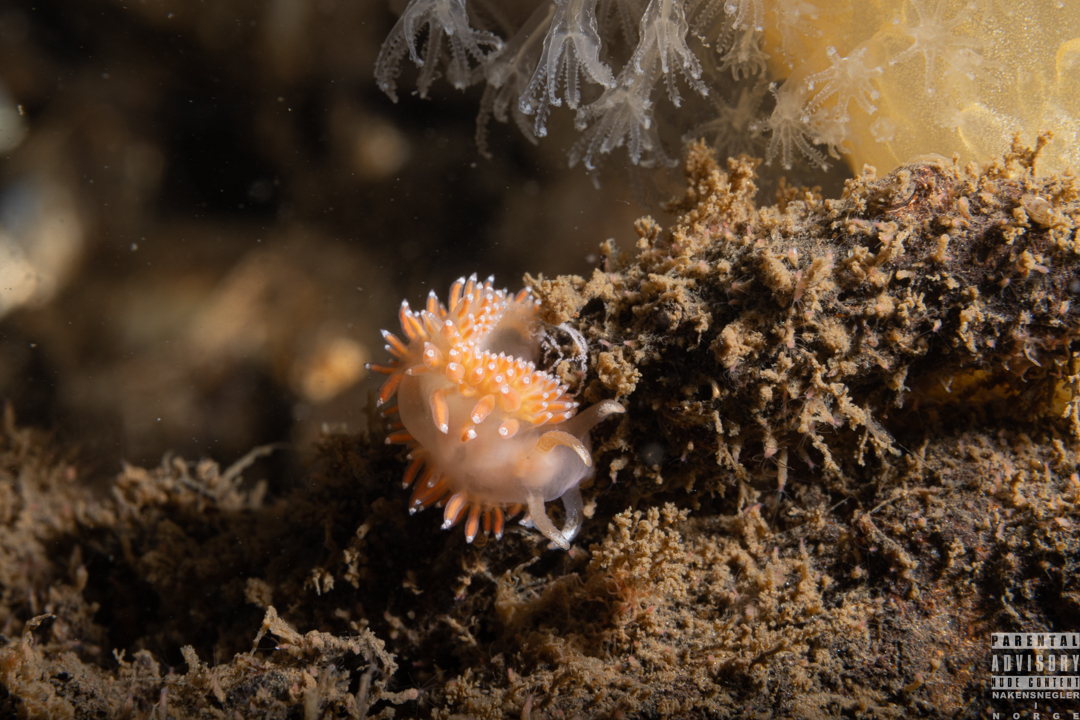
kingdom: Animalia
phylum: Mollusca
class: Gastropoda
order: Nudibranchia
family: Coryphellidae
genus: Coryphella
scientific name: Coryphella borealis
